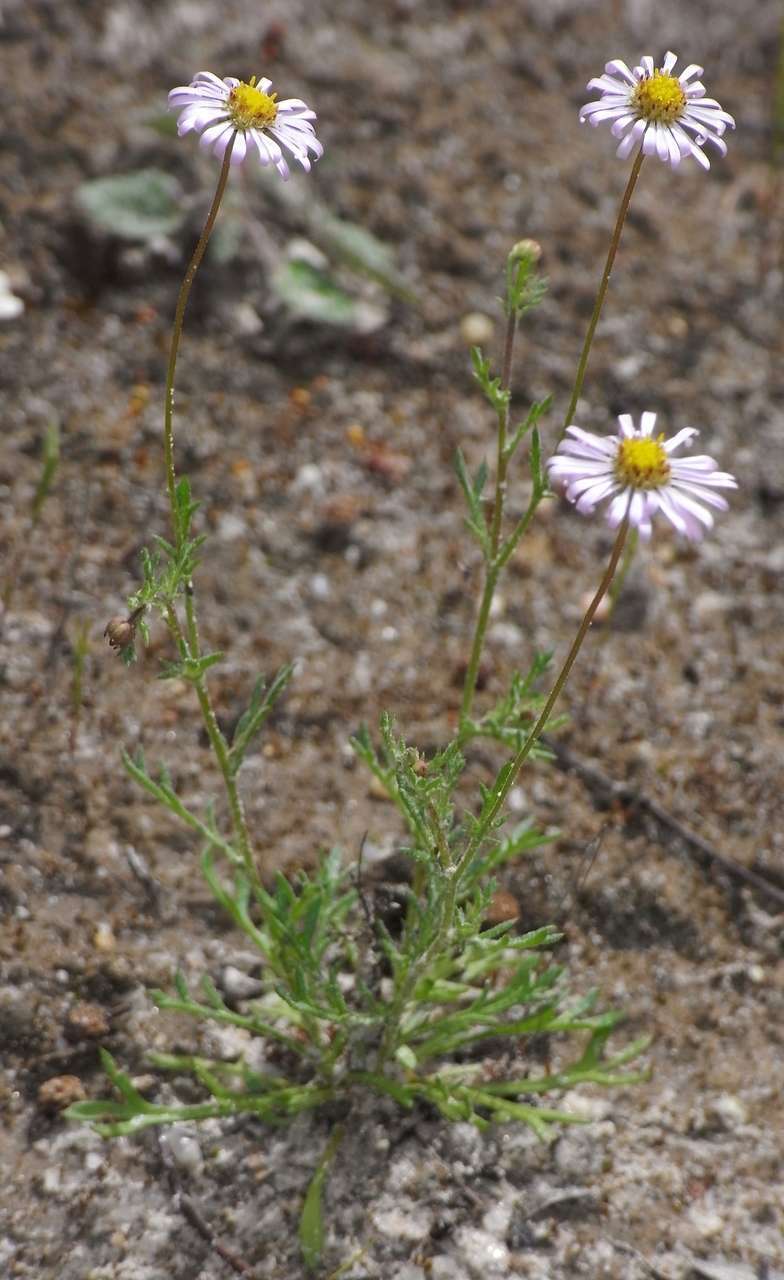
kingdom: Plantae
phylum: Tracheophyta
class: Magnoliopsida
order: Asterales
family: Asteraceae
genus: Brachyscome
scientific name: Brachyscome ciliaris
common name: Variable daisy
